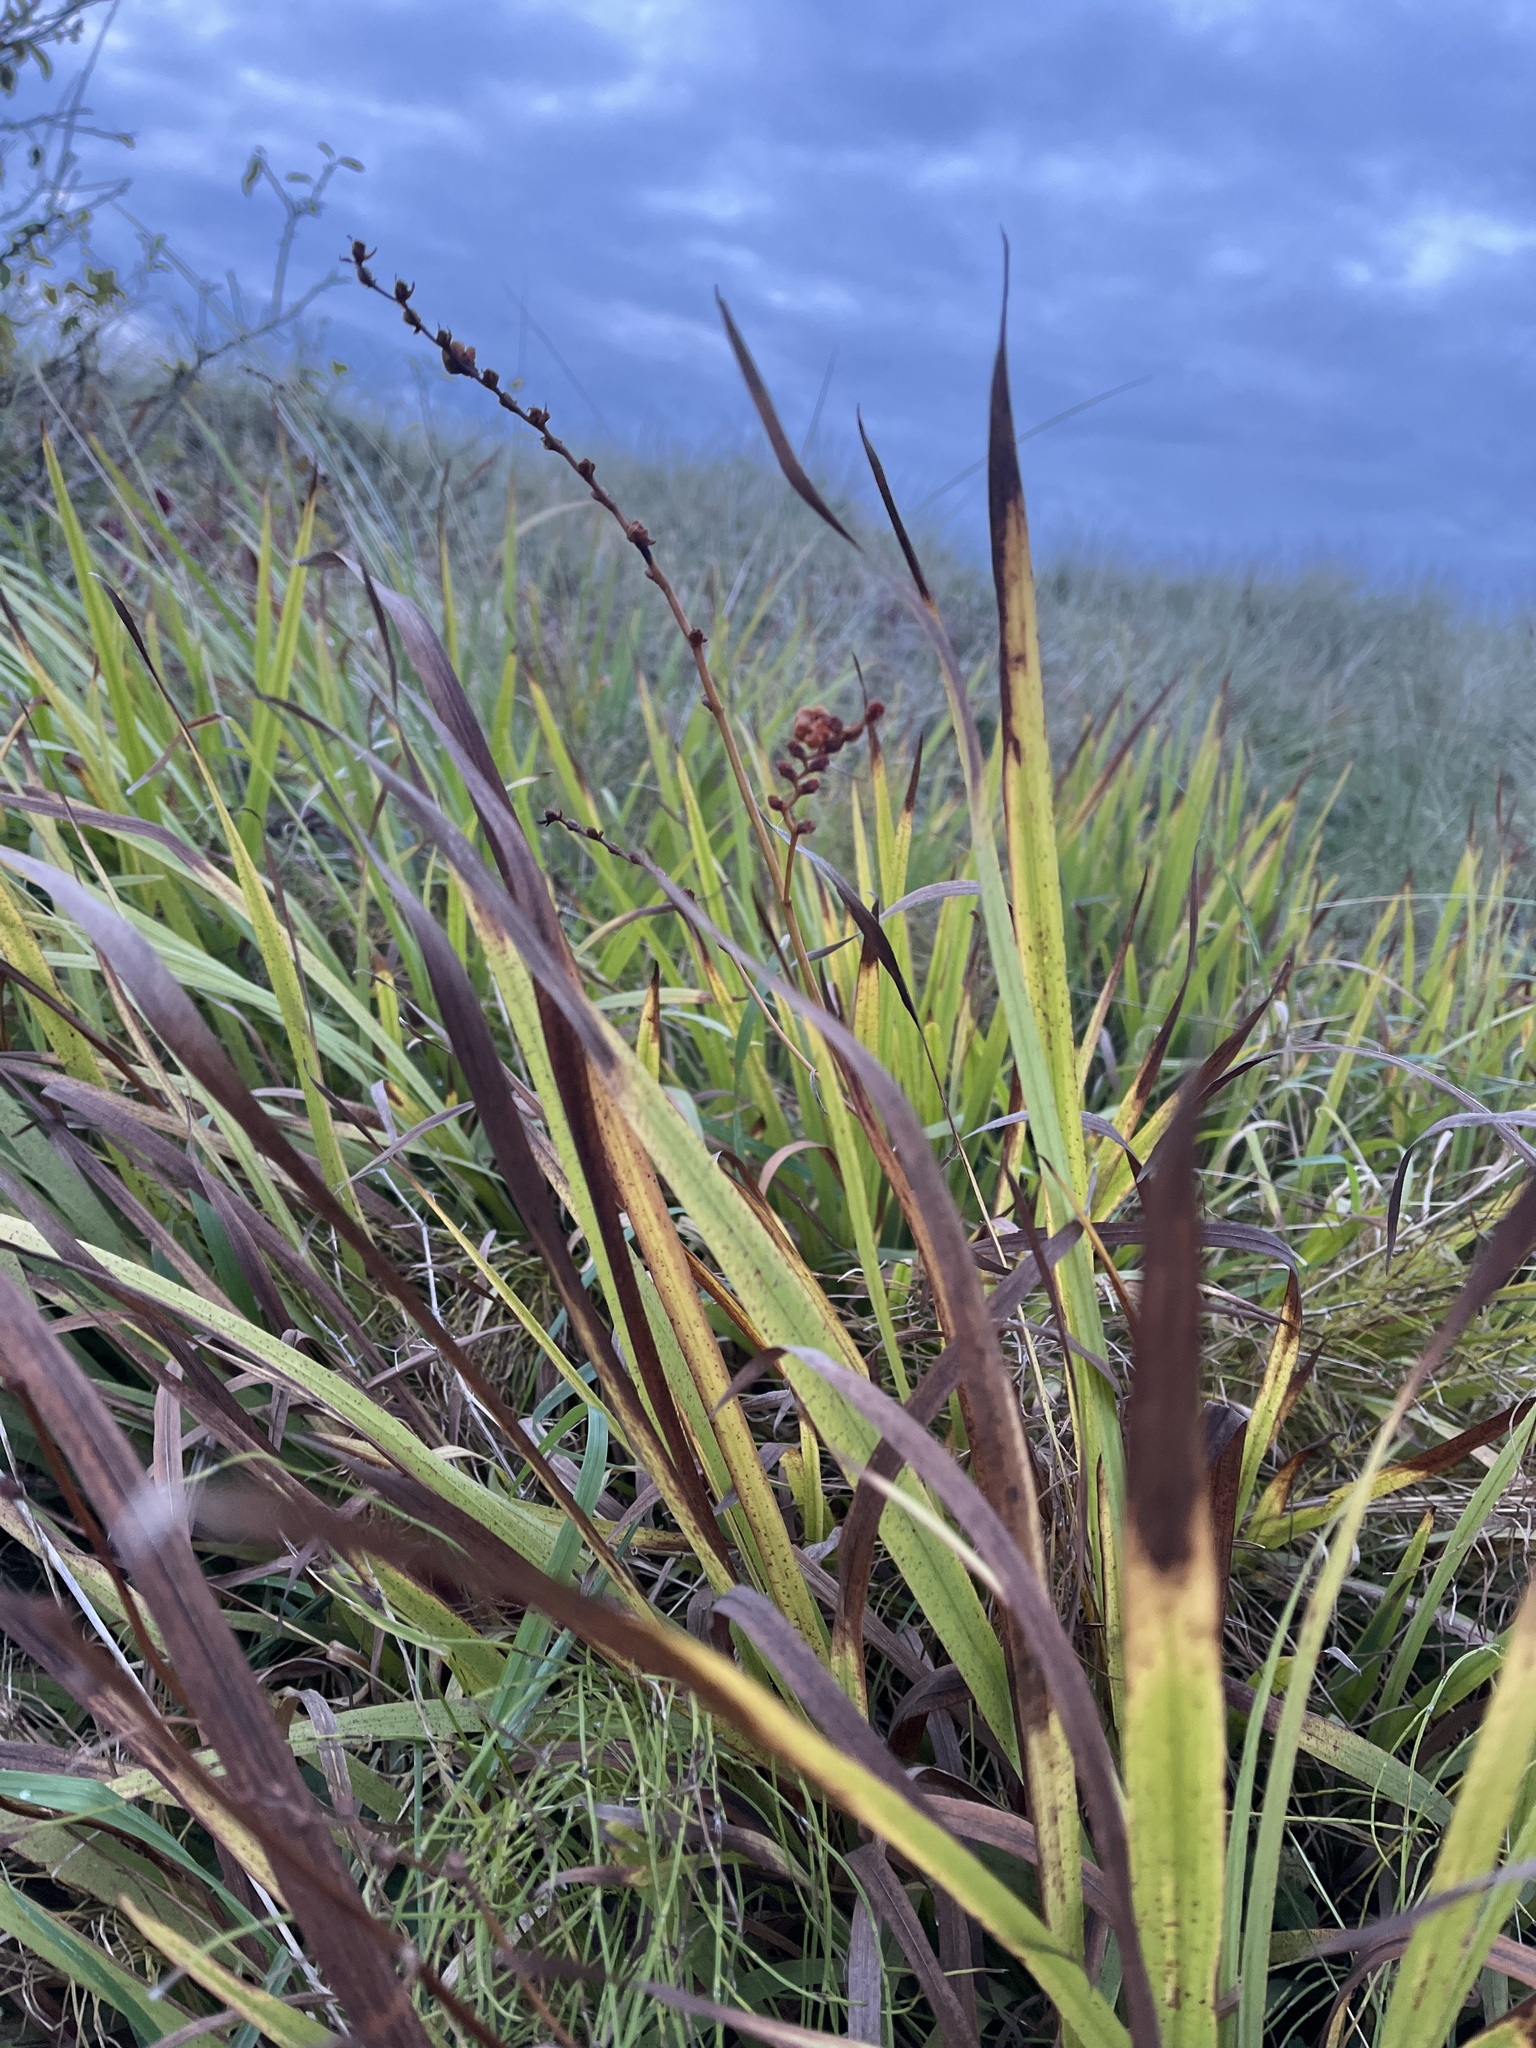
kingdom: Plantae
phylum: Tracheophyta
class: Liliopsida
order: Asparagales
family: Iridaceae
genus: Crocosmia
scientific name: Crocosmia crocosmiiflora
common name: Montbretia
